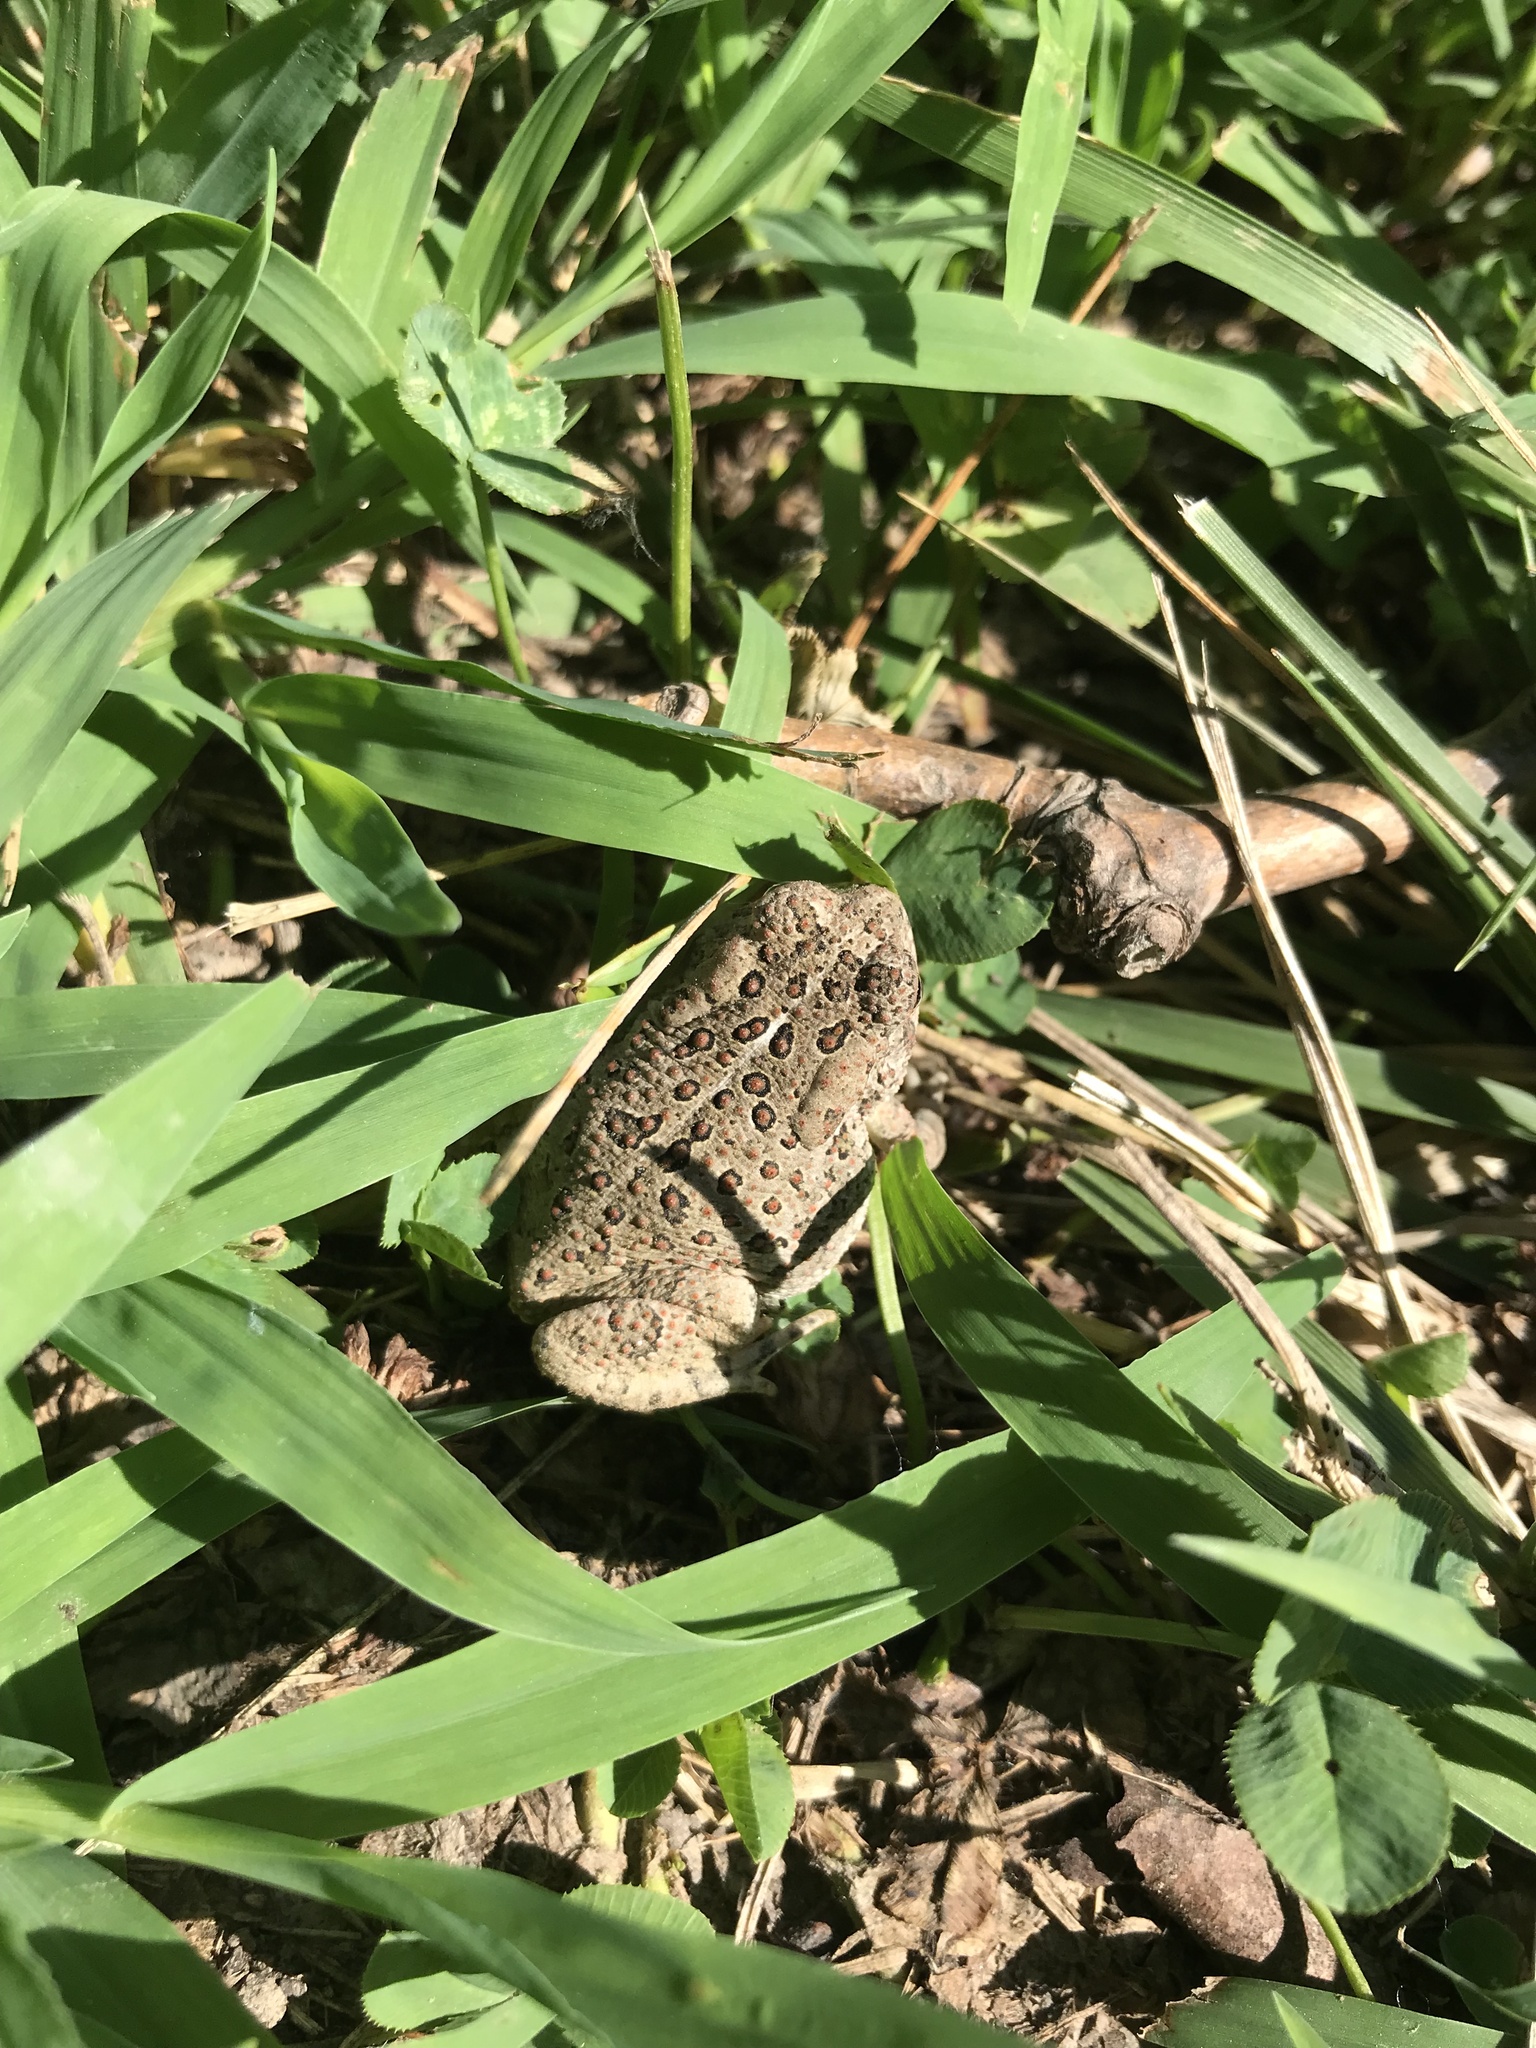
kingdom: Animalia
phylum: Chordata
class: Amphibia
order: Anura
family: Bufonidae
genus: Anaxyrus
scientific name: Anaxyrus woodhousii
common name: Woodhouse's toad
